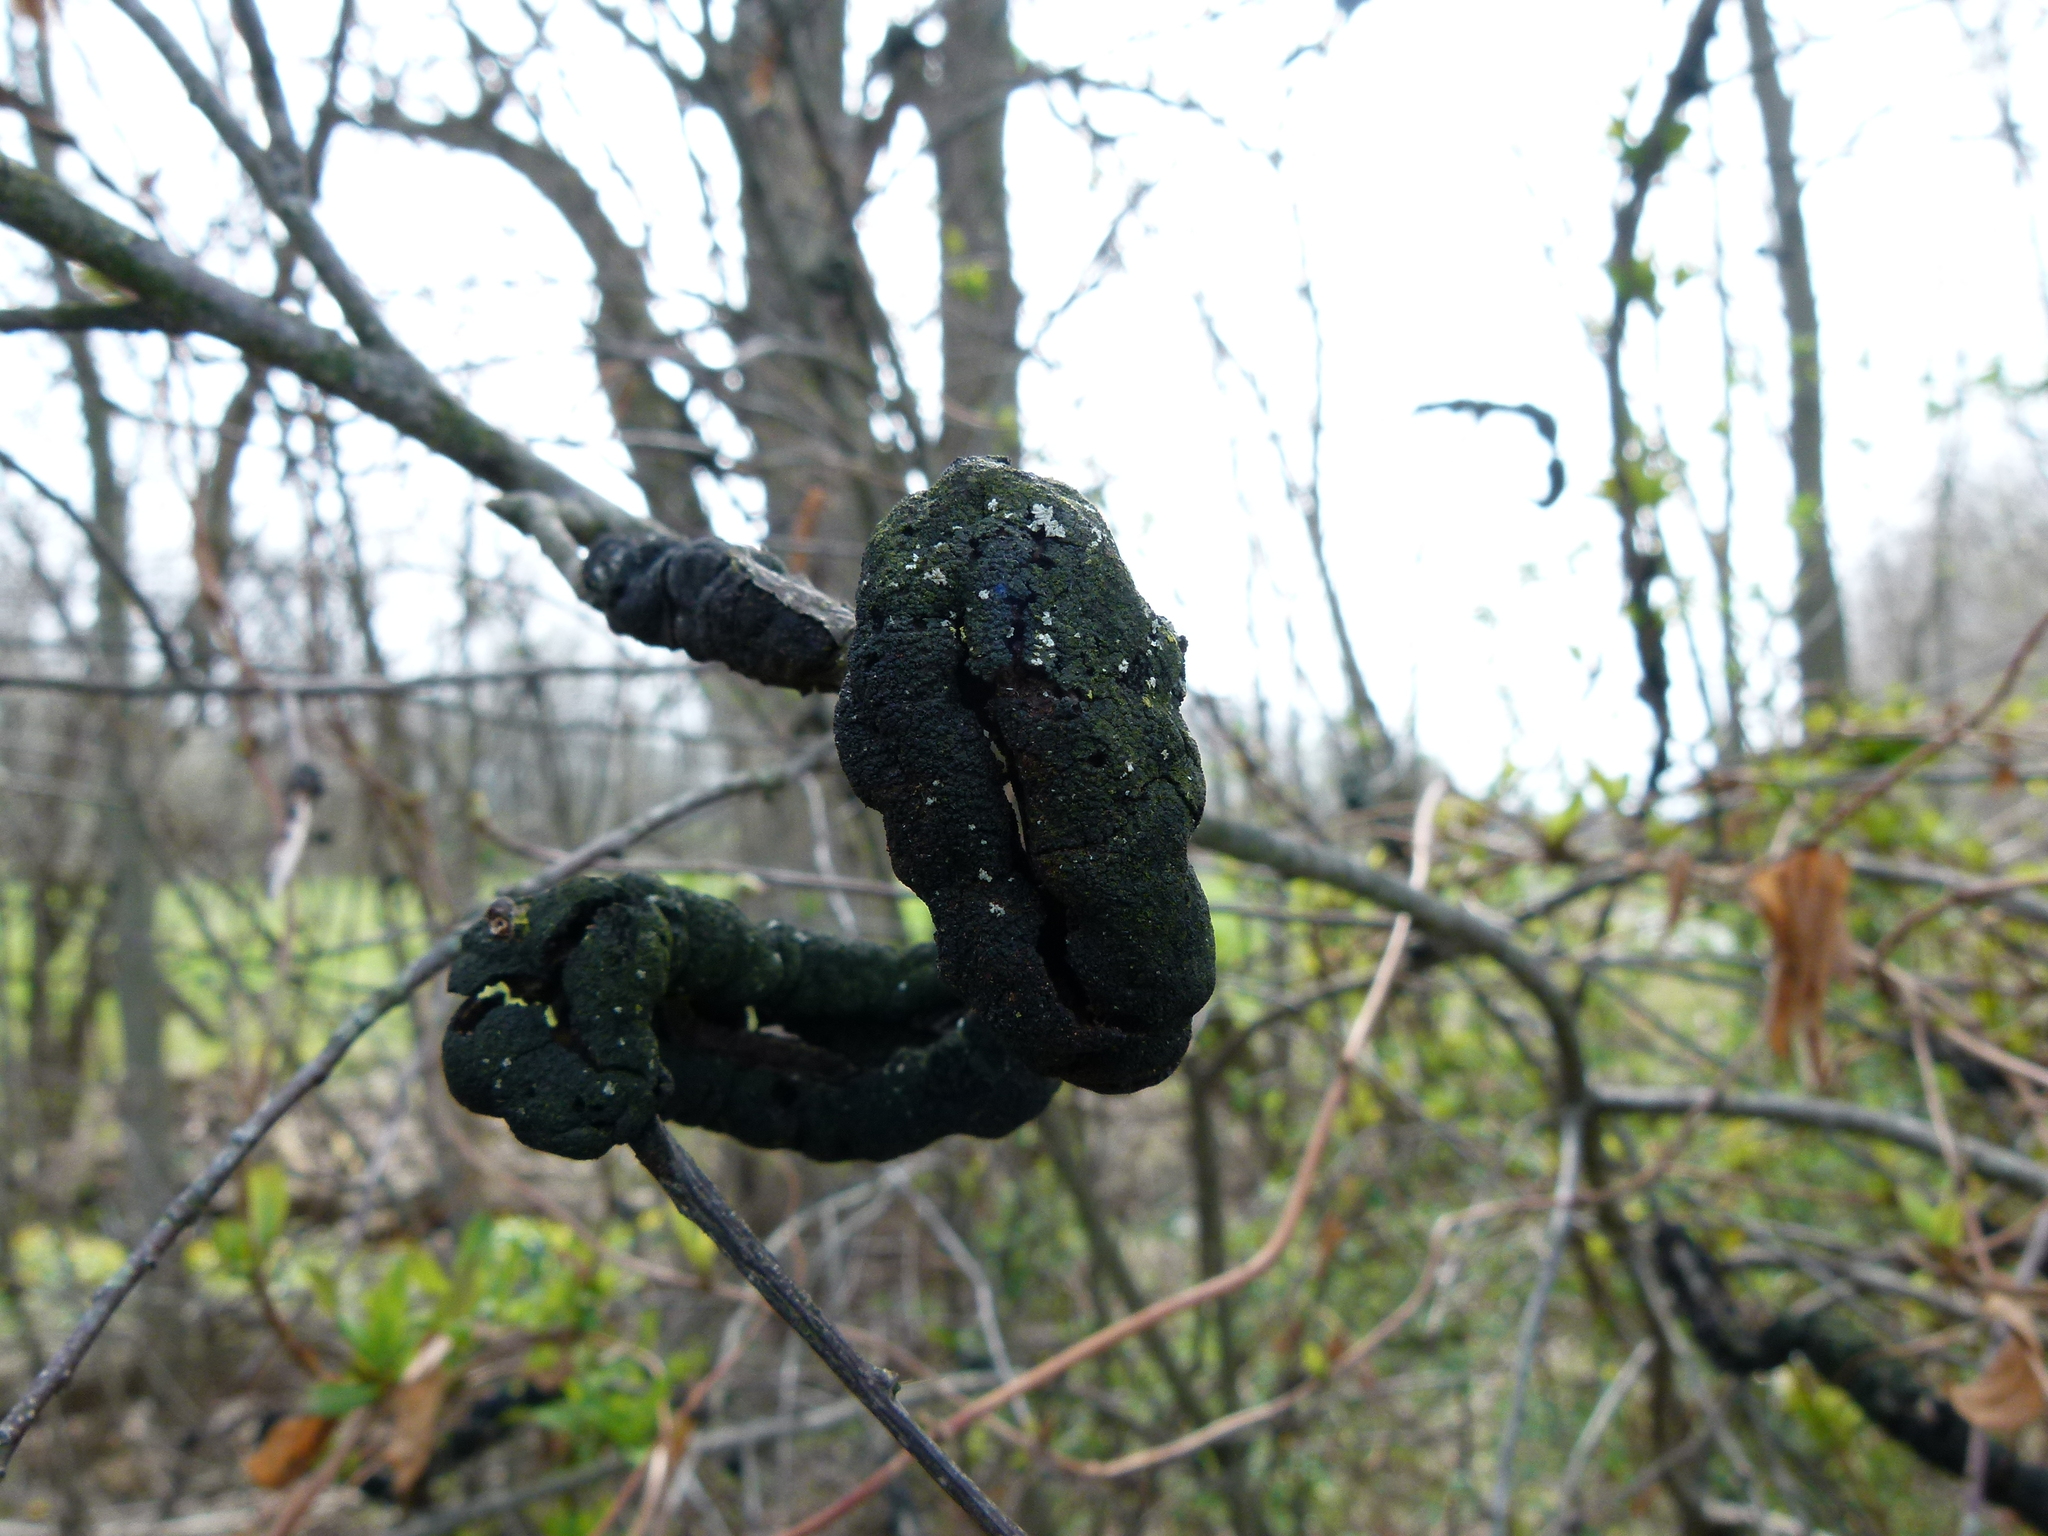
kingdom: Fungi
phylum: Ascomycota
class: Dothideomycetes
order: Venturiales
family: Venturiaceae
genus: Apiosporina
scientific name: Apiosporina morbosa
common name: Black knot
